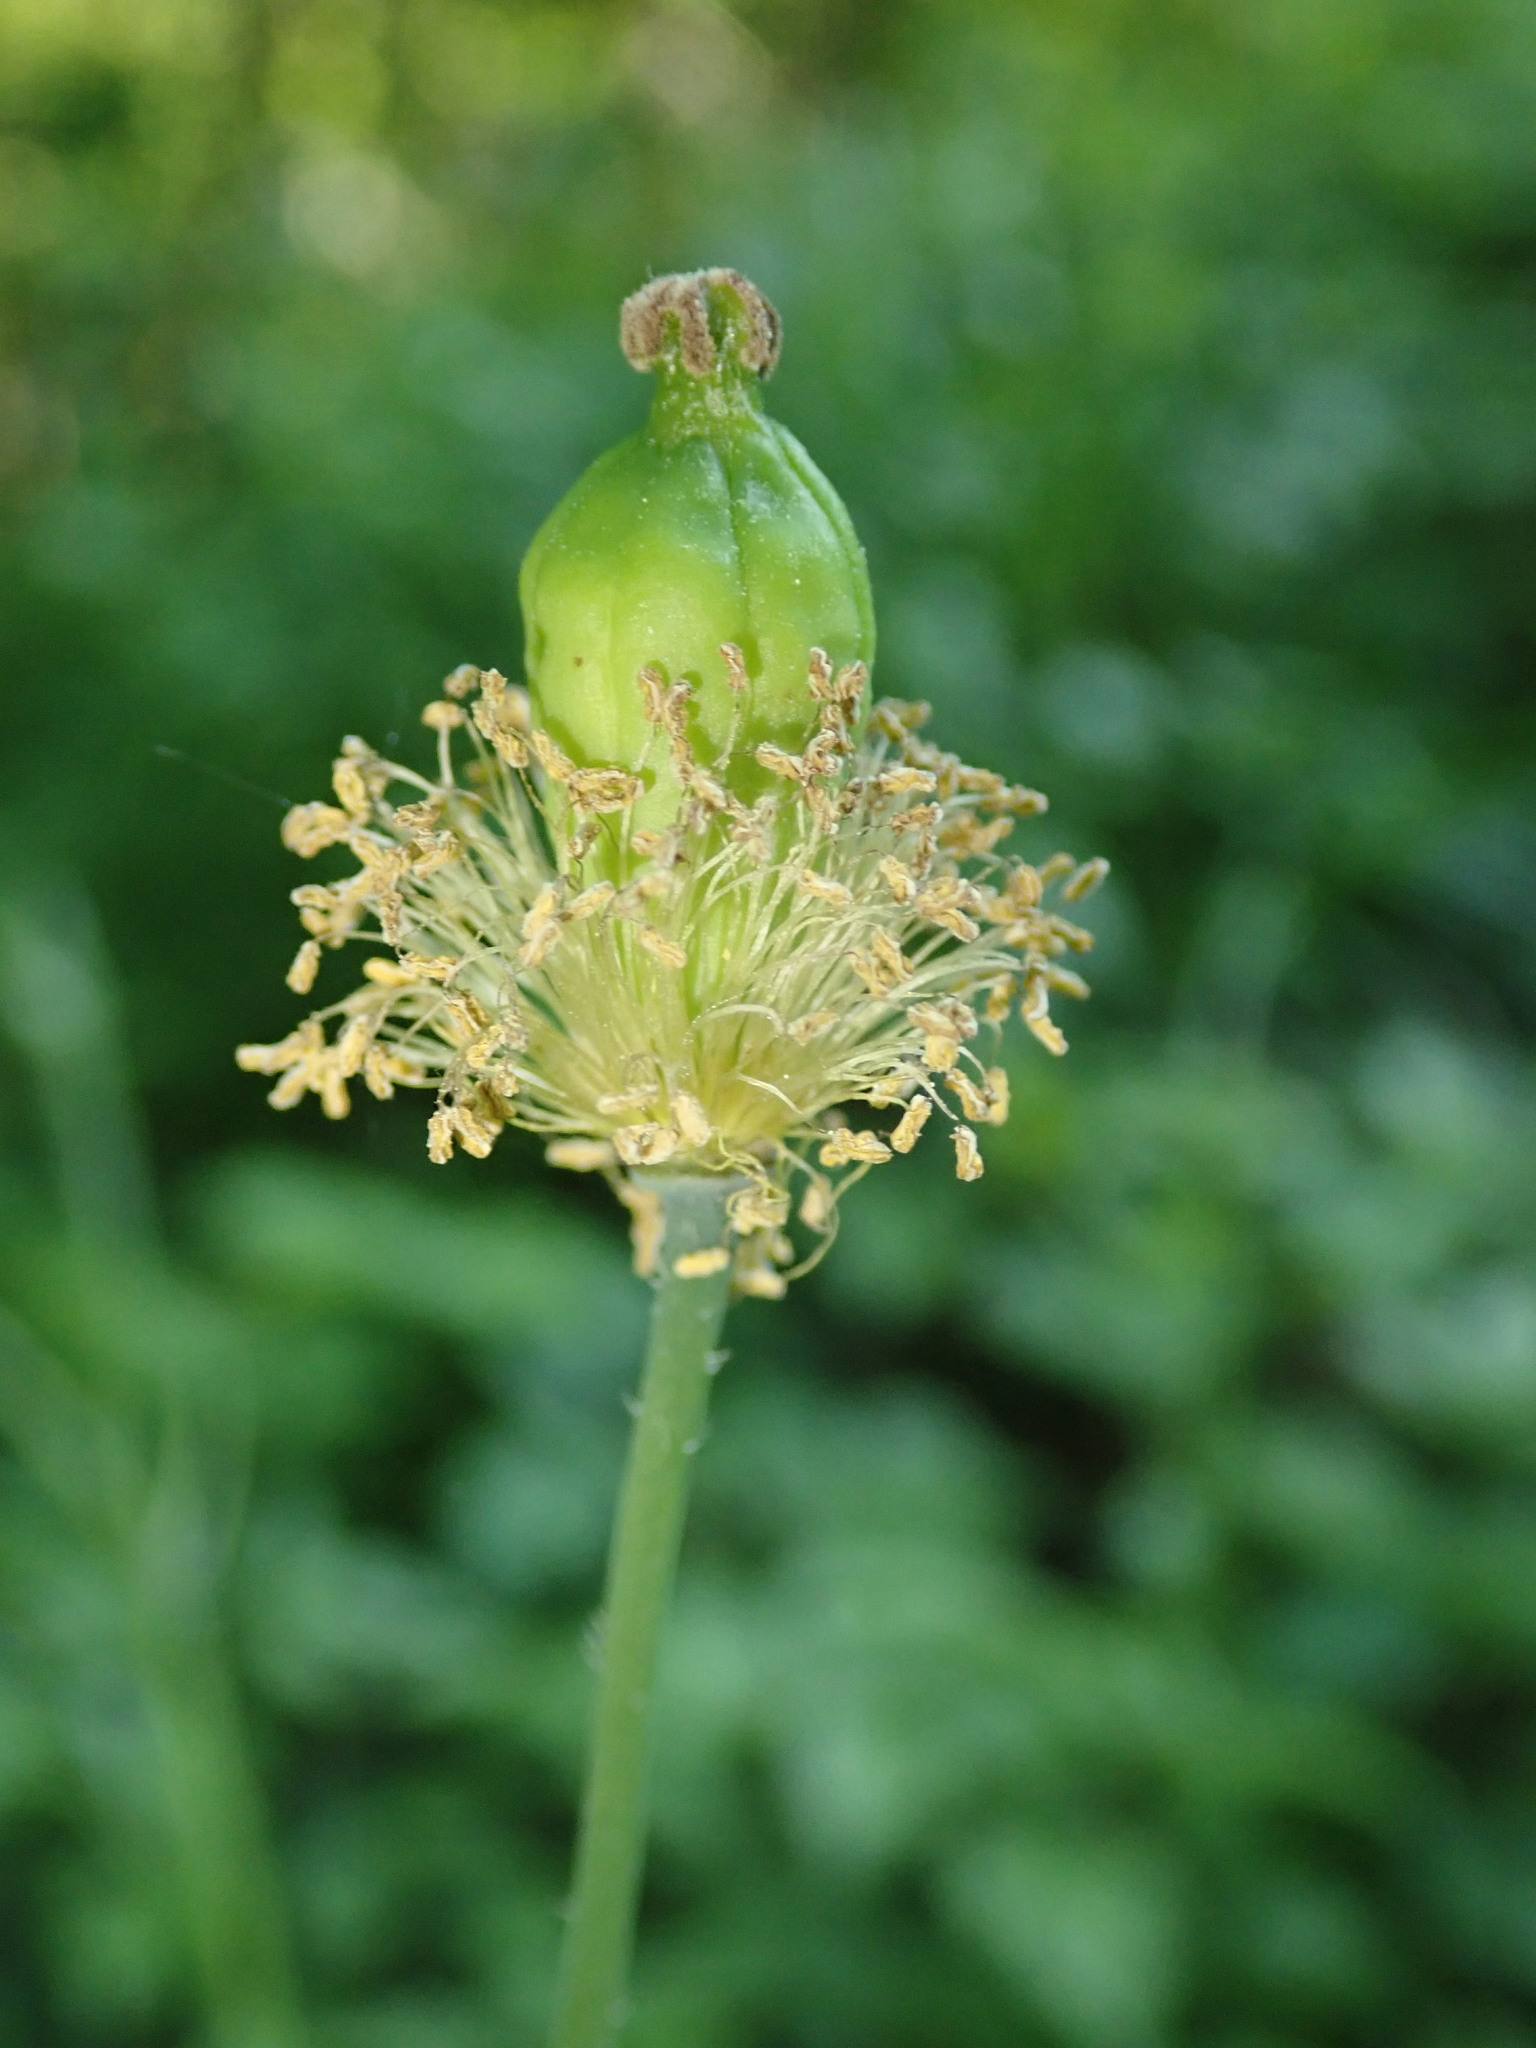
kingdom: Plantae
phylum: Tracheophyta
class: Magnoliopsida
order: Ranunculales
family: Papaveraceae
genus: Papaver
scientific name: Papaver cambricum
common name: Poppy
